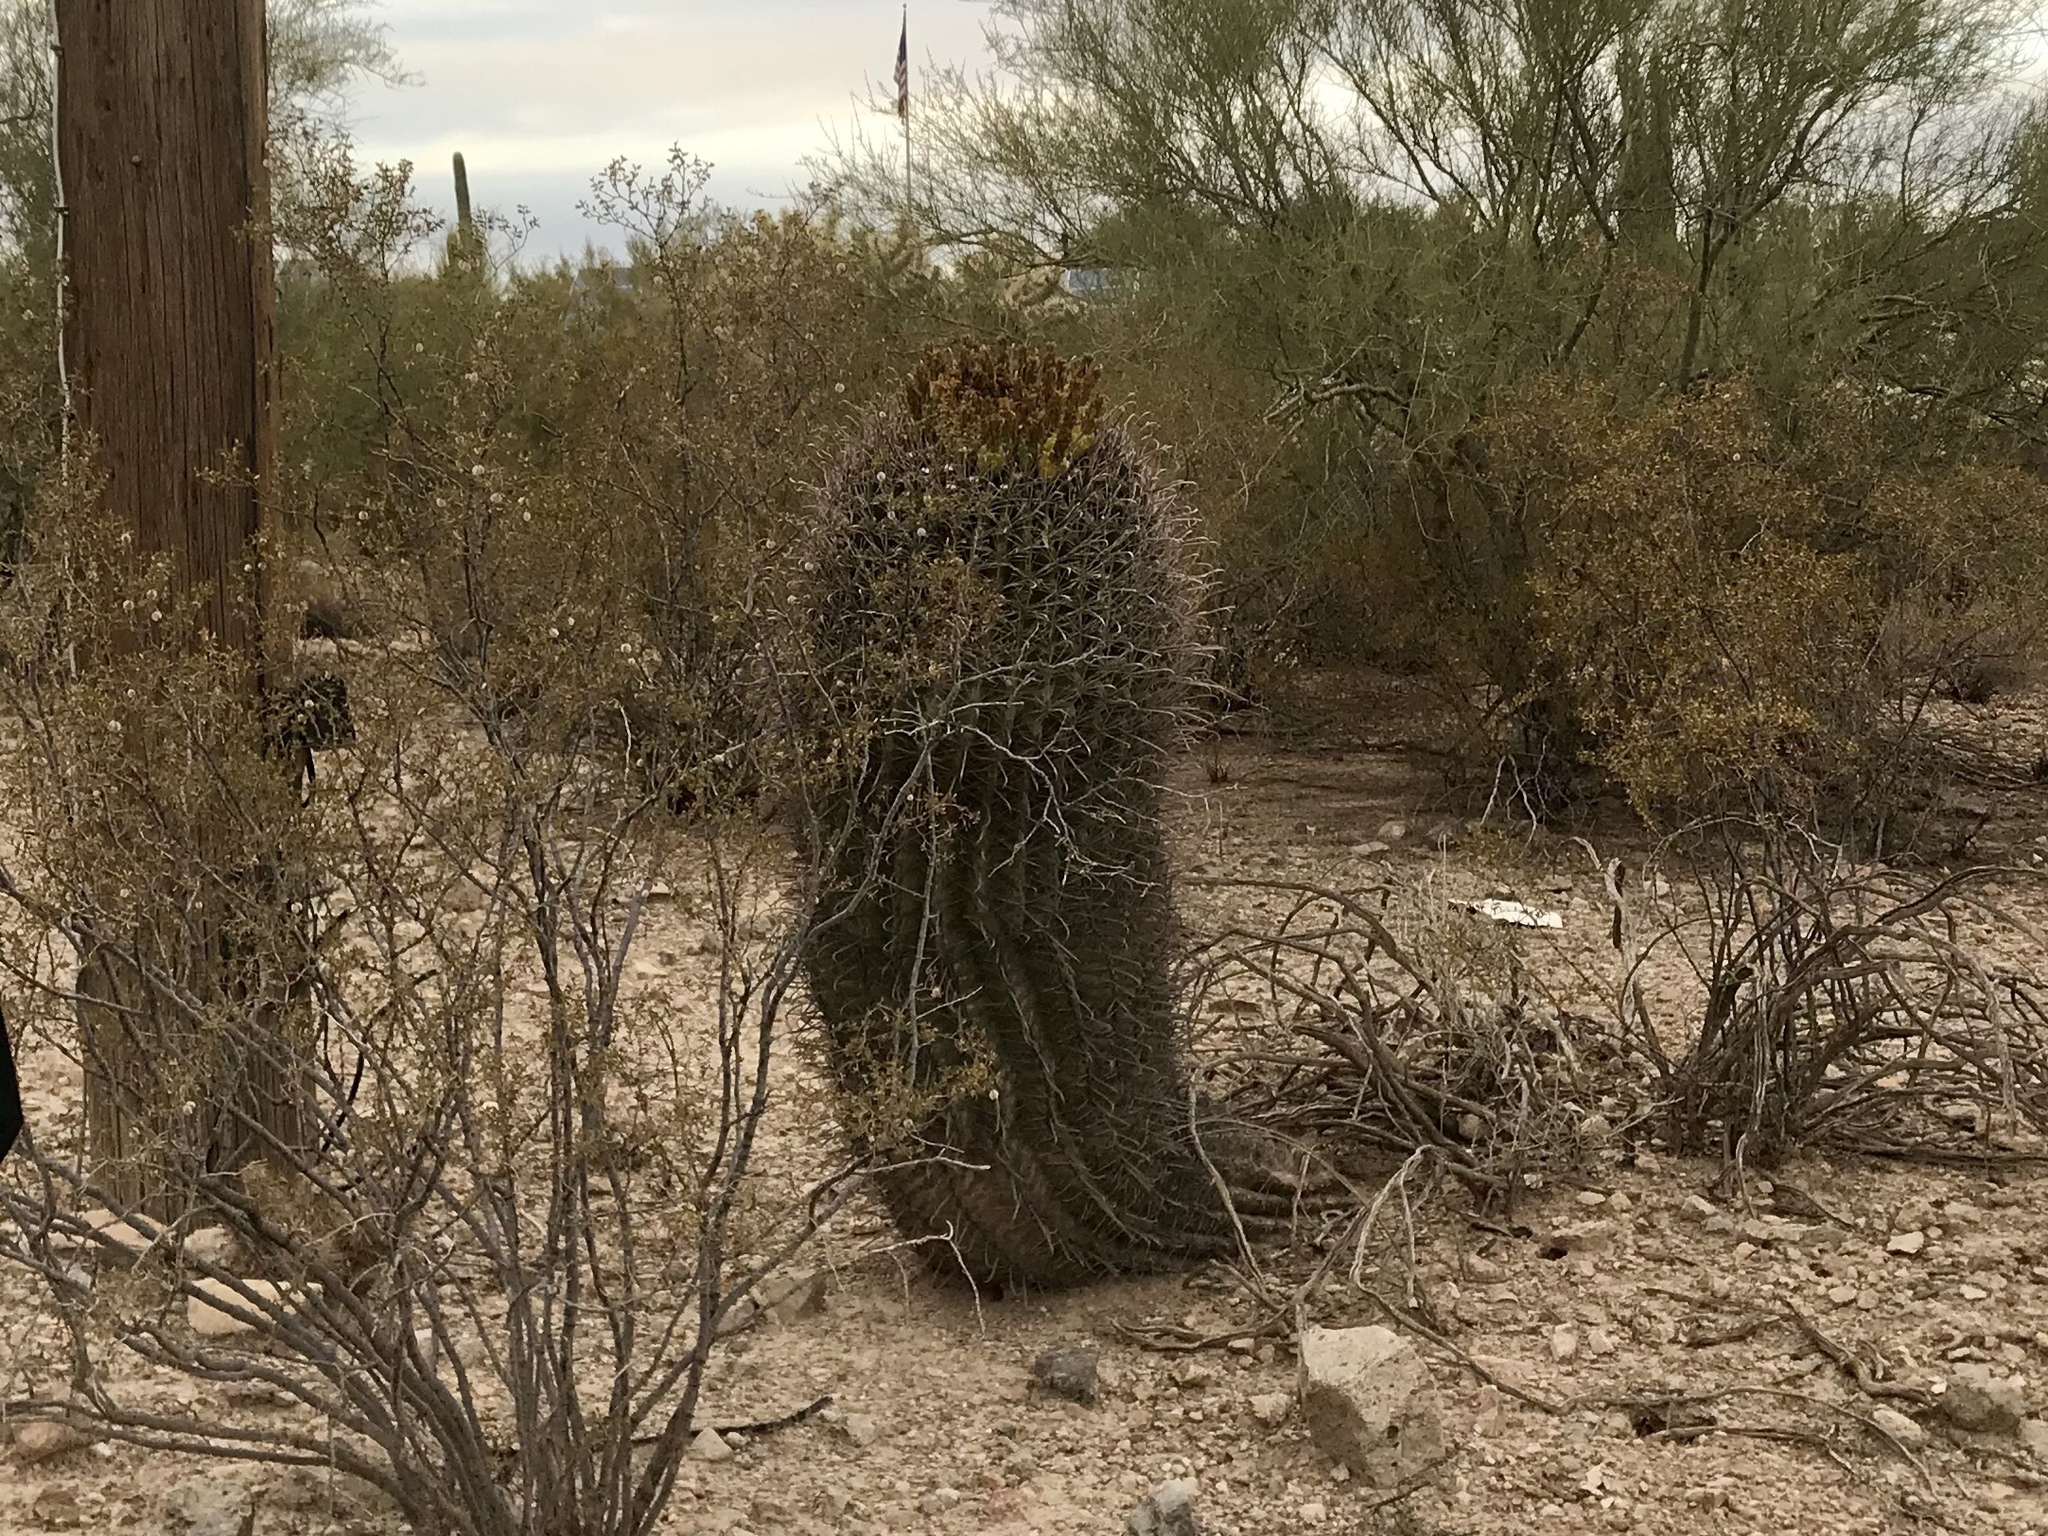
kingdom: Plantae
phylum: Tracheophyta
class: Magnoliopsida
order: Caryophyllales
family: Cactaceae
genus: Ferocactus
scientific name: Ferocactus wislizeni
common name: Candy barrel cactus
